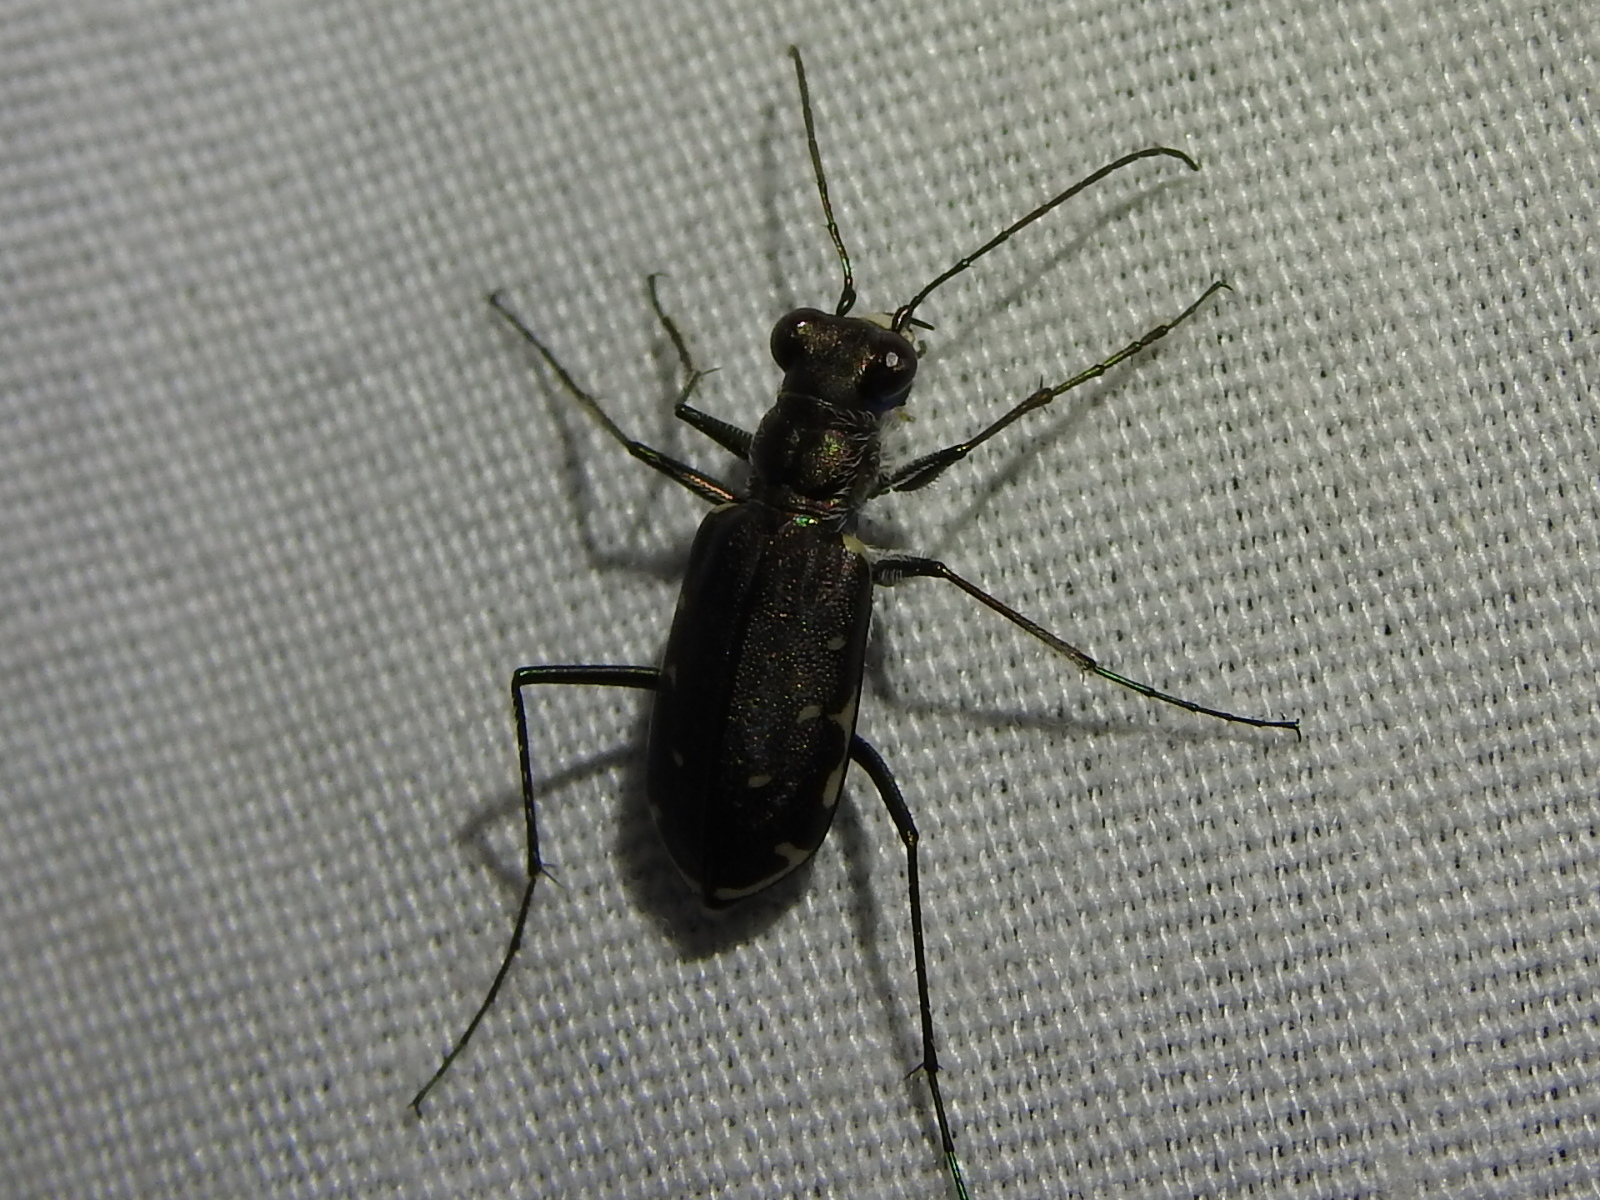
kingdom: Animalia
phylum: Arthropoda
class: Insecta
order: Coleoptera
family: Carabidae
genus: Cicindela
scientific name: Cicindela punctulata
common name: Punctured tiger beetle
